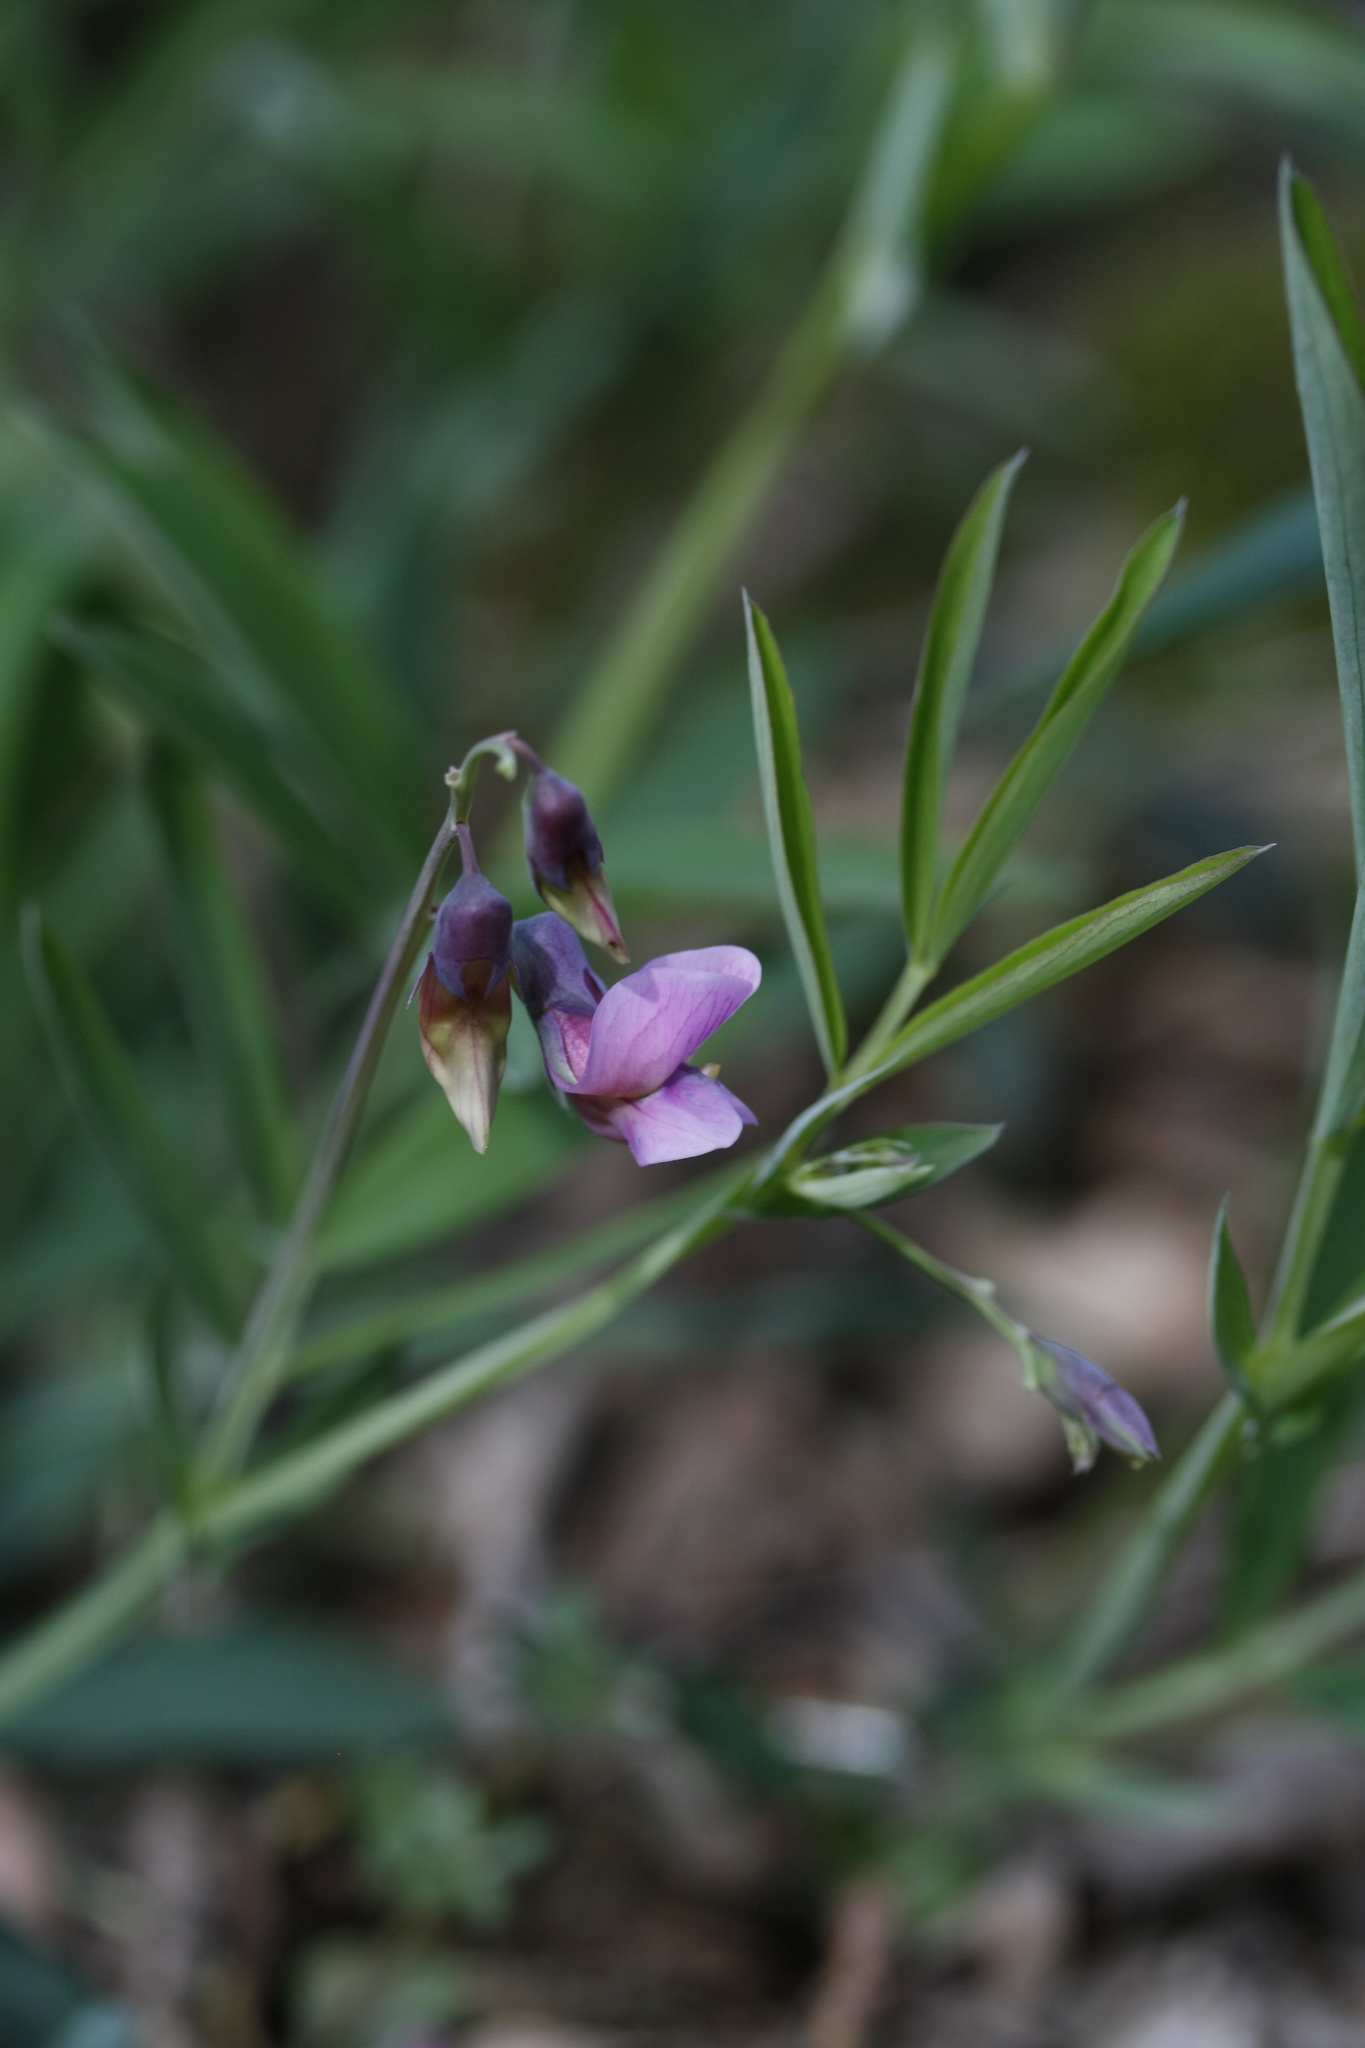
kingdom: Plantae
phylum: Tracheophyta
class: Magnoliopsida
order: Fabales
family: Fabaceae
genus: Lathyrus
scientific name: Lathyrus linifolius
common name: Bitter-vetch
